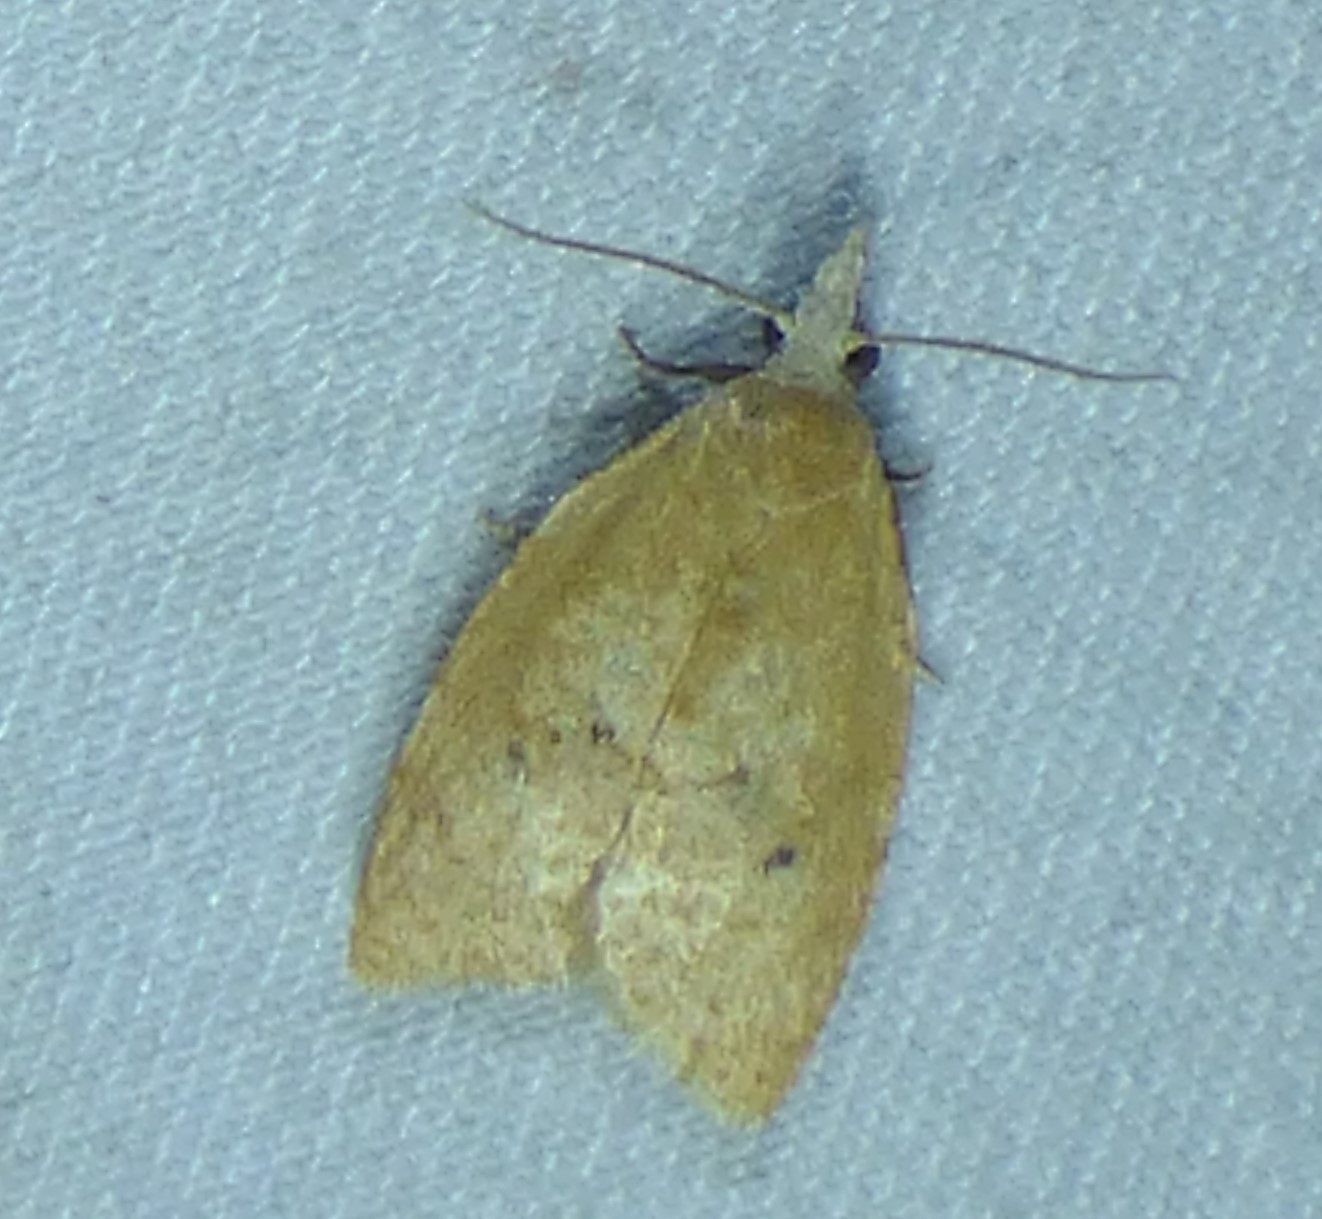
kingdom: Animalia
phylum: Arthropoda
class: Insecta
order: Lepidoptera
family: Tortricidae
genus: Sparganothoides
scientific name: Sparganothoides lentiginosana
